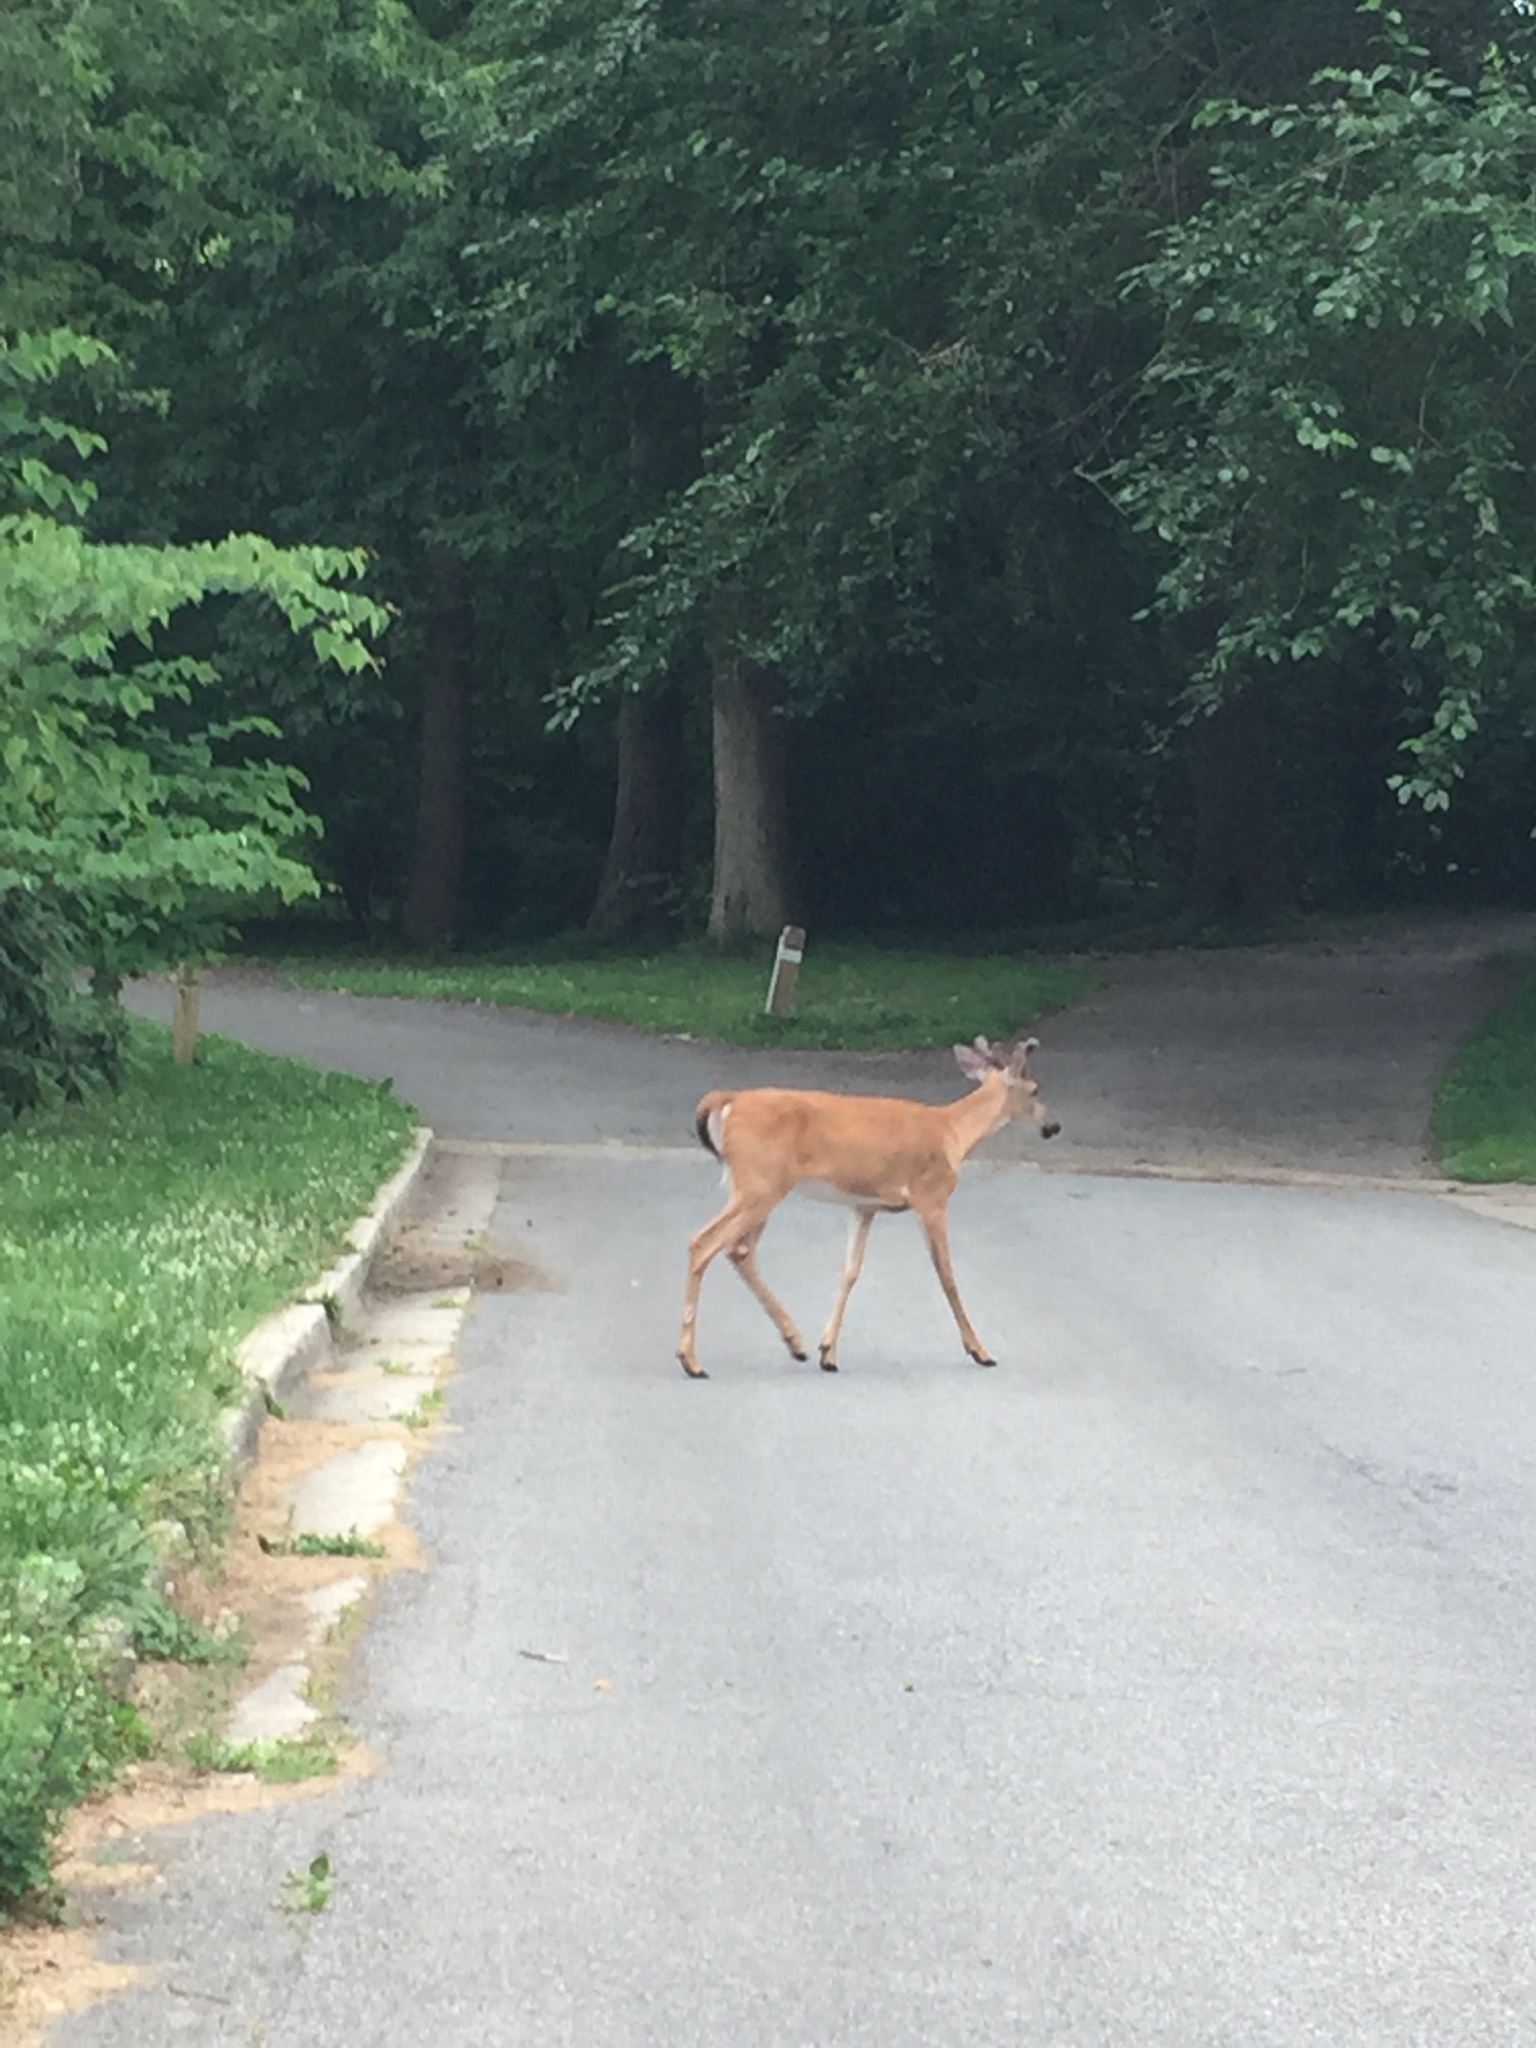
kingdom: Animalia
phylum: Chordata
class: Mammalia
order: Artiodactyla
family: Cervidae
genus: Odocoileus
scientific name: Odocoileus virginianus
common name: White-tailed deer
